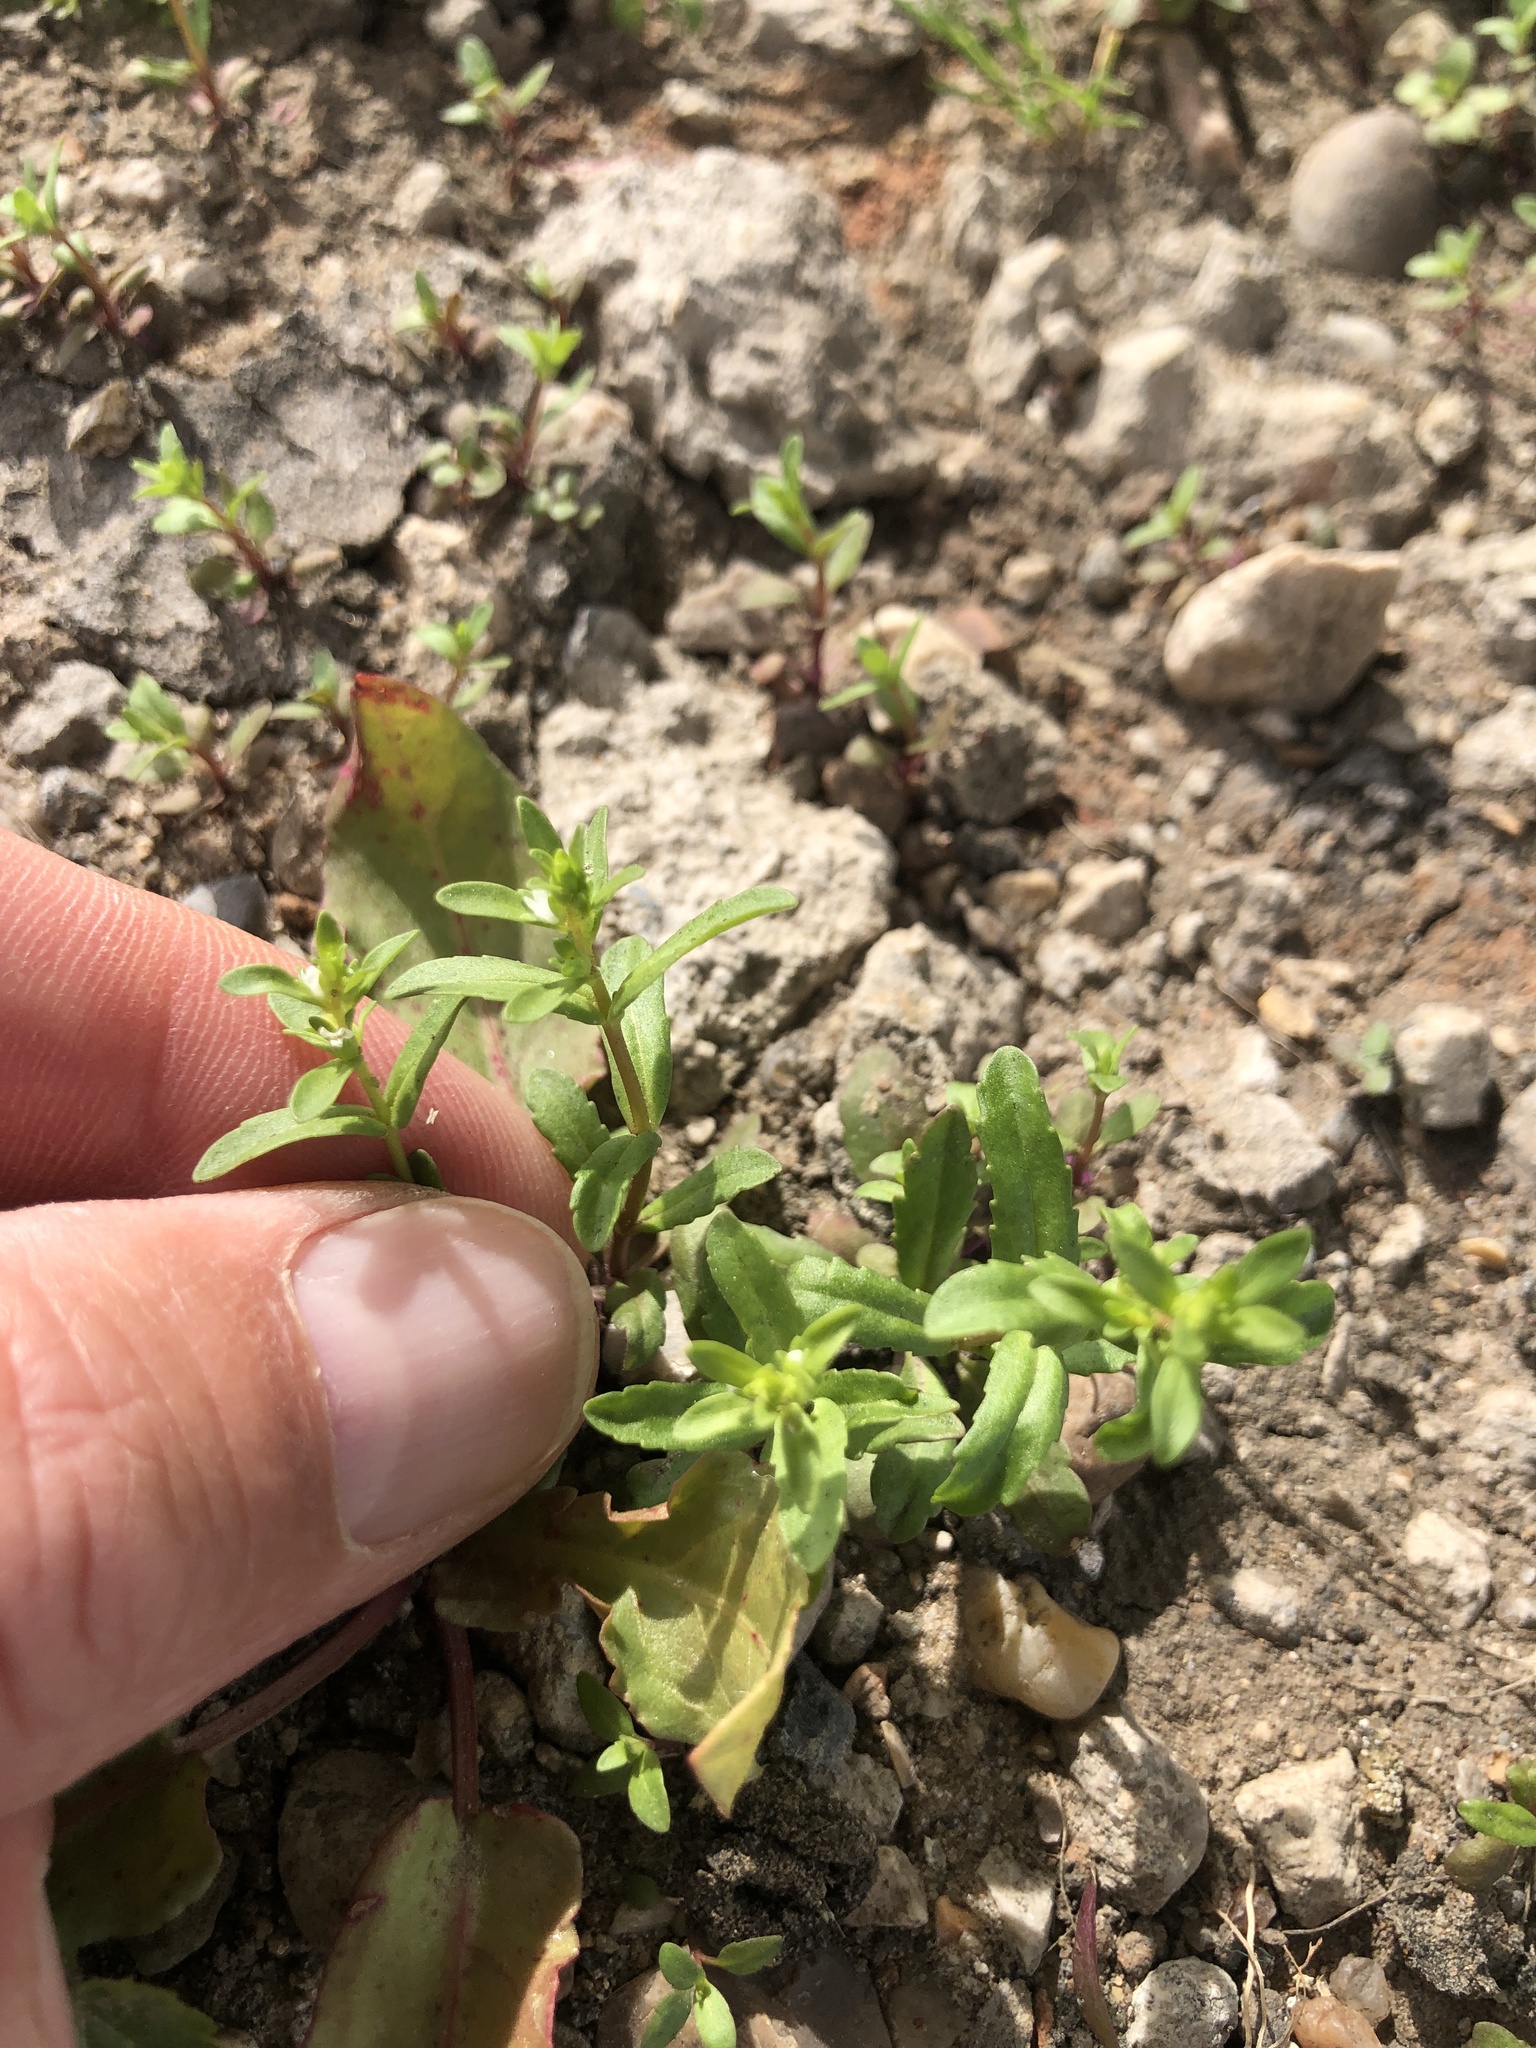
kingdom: Plantae
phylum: Tracheophyta
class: Magnoliopsida
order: Lamiales
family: Plantaginaceae
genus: Veronica
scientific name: Veronica peregrina
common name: Neckweed
